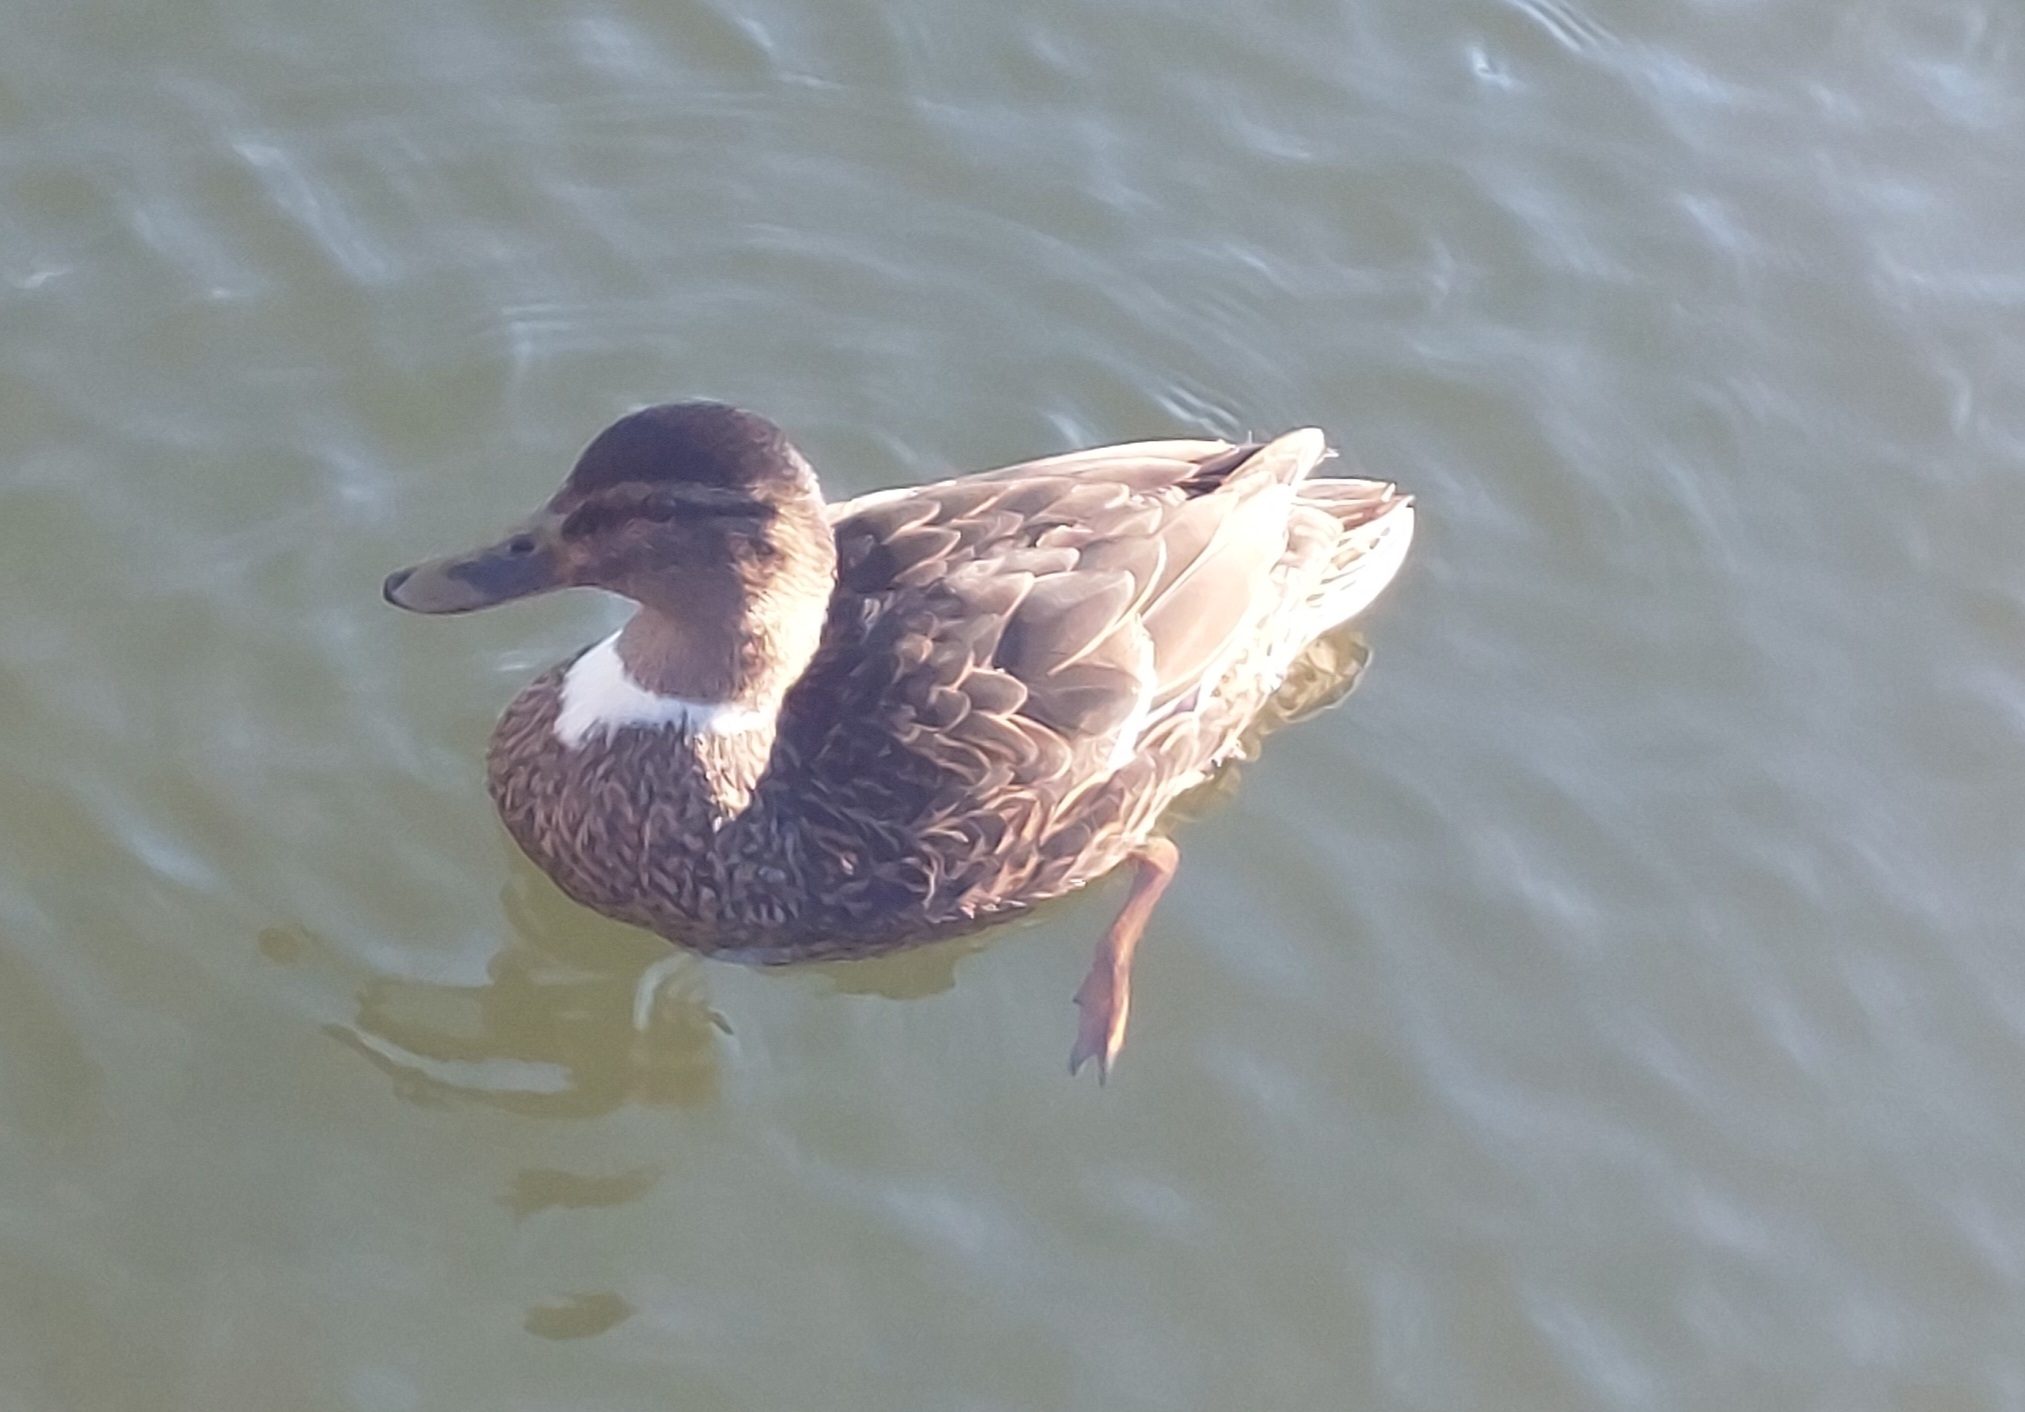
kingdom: Animalia
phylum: Chordata
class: Aves
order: Anseriformes
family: Anatidae
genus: Anas
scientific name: Anas platyrhynchos
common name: Mallard
